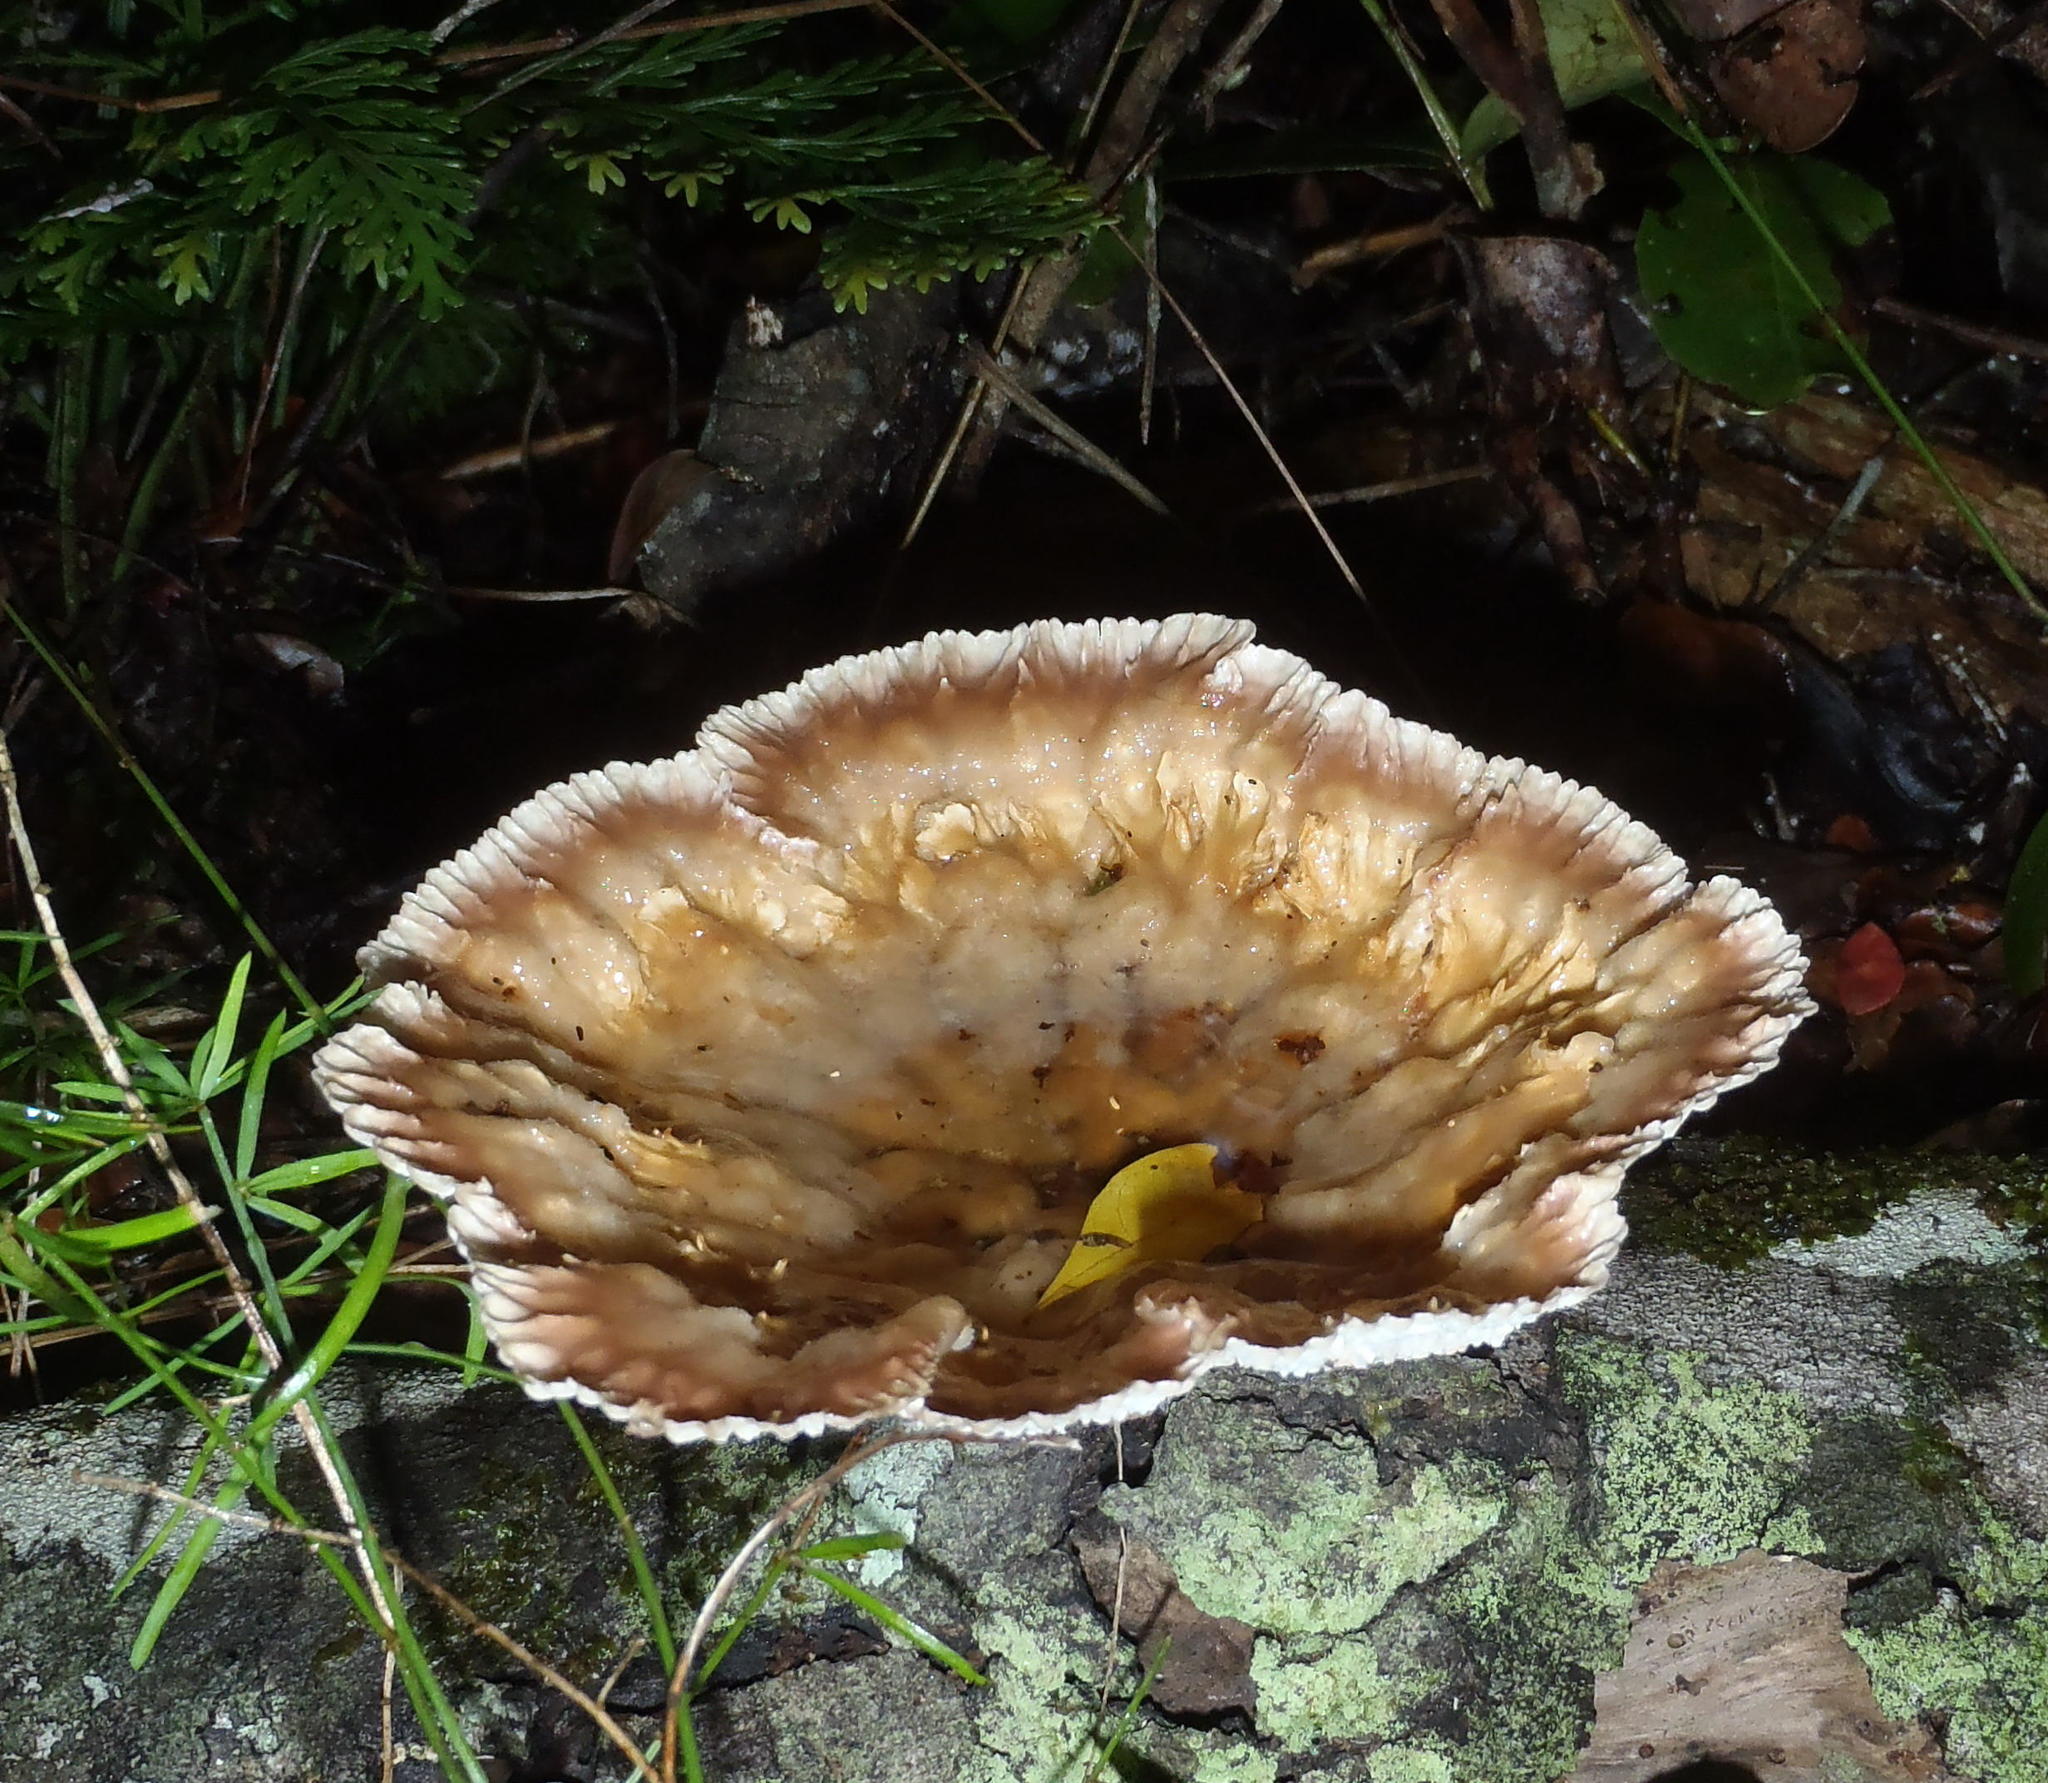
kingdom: Fungi
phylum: Basidiomycota
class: Agaricomycetes
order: Polyporales
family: Panaceae
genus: Cymatoderma
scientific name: Cymatoderma elegans
